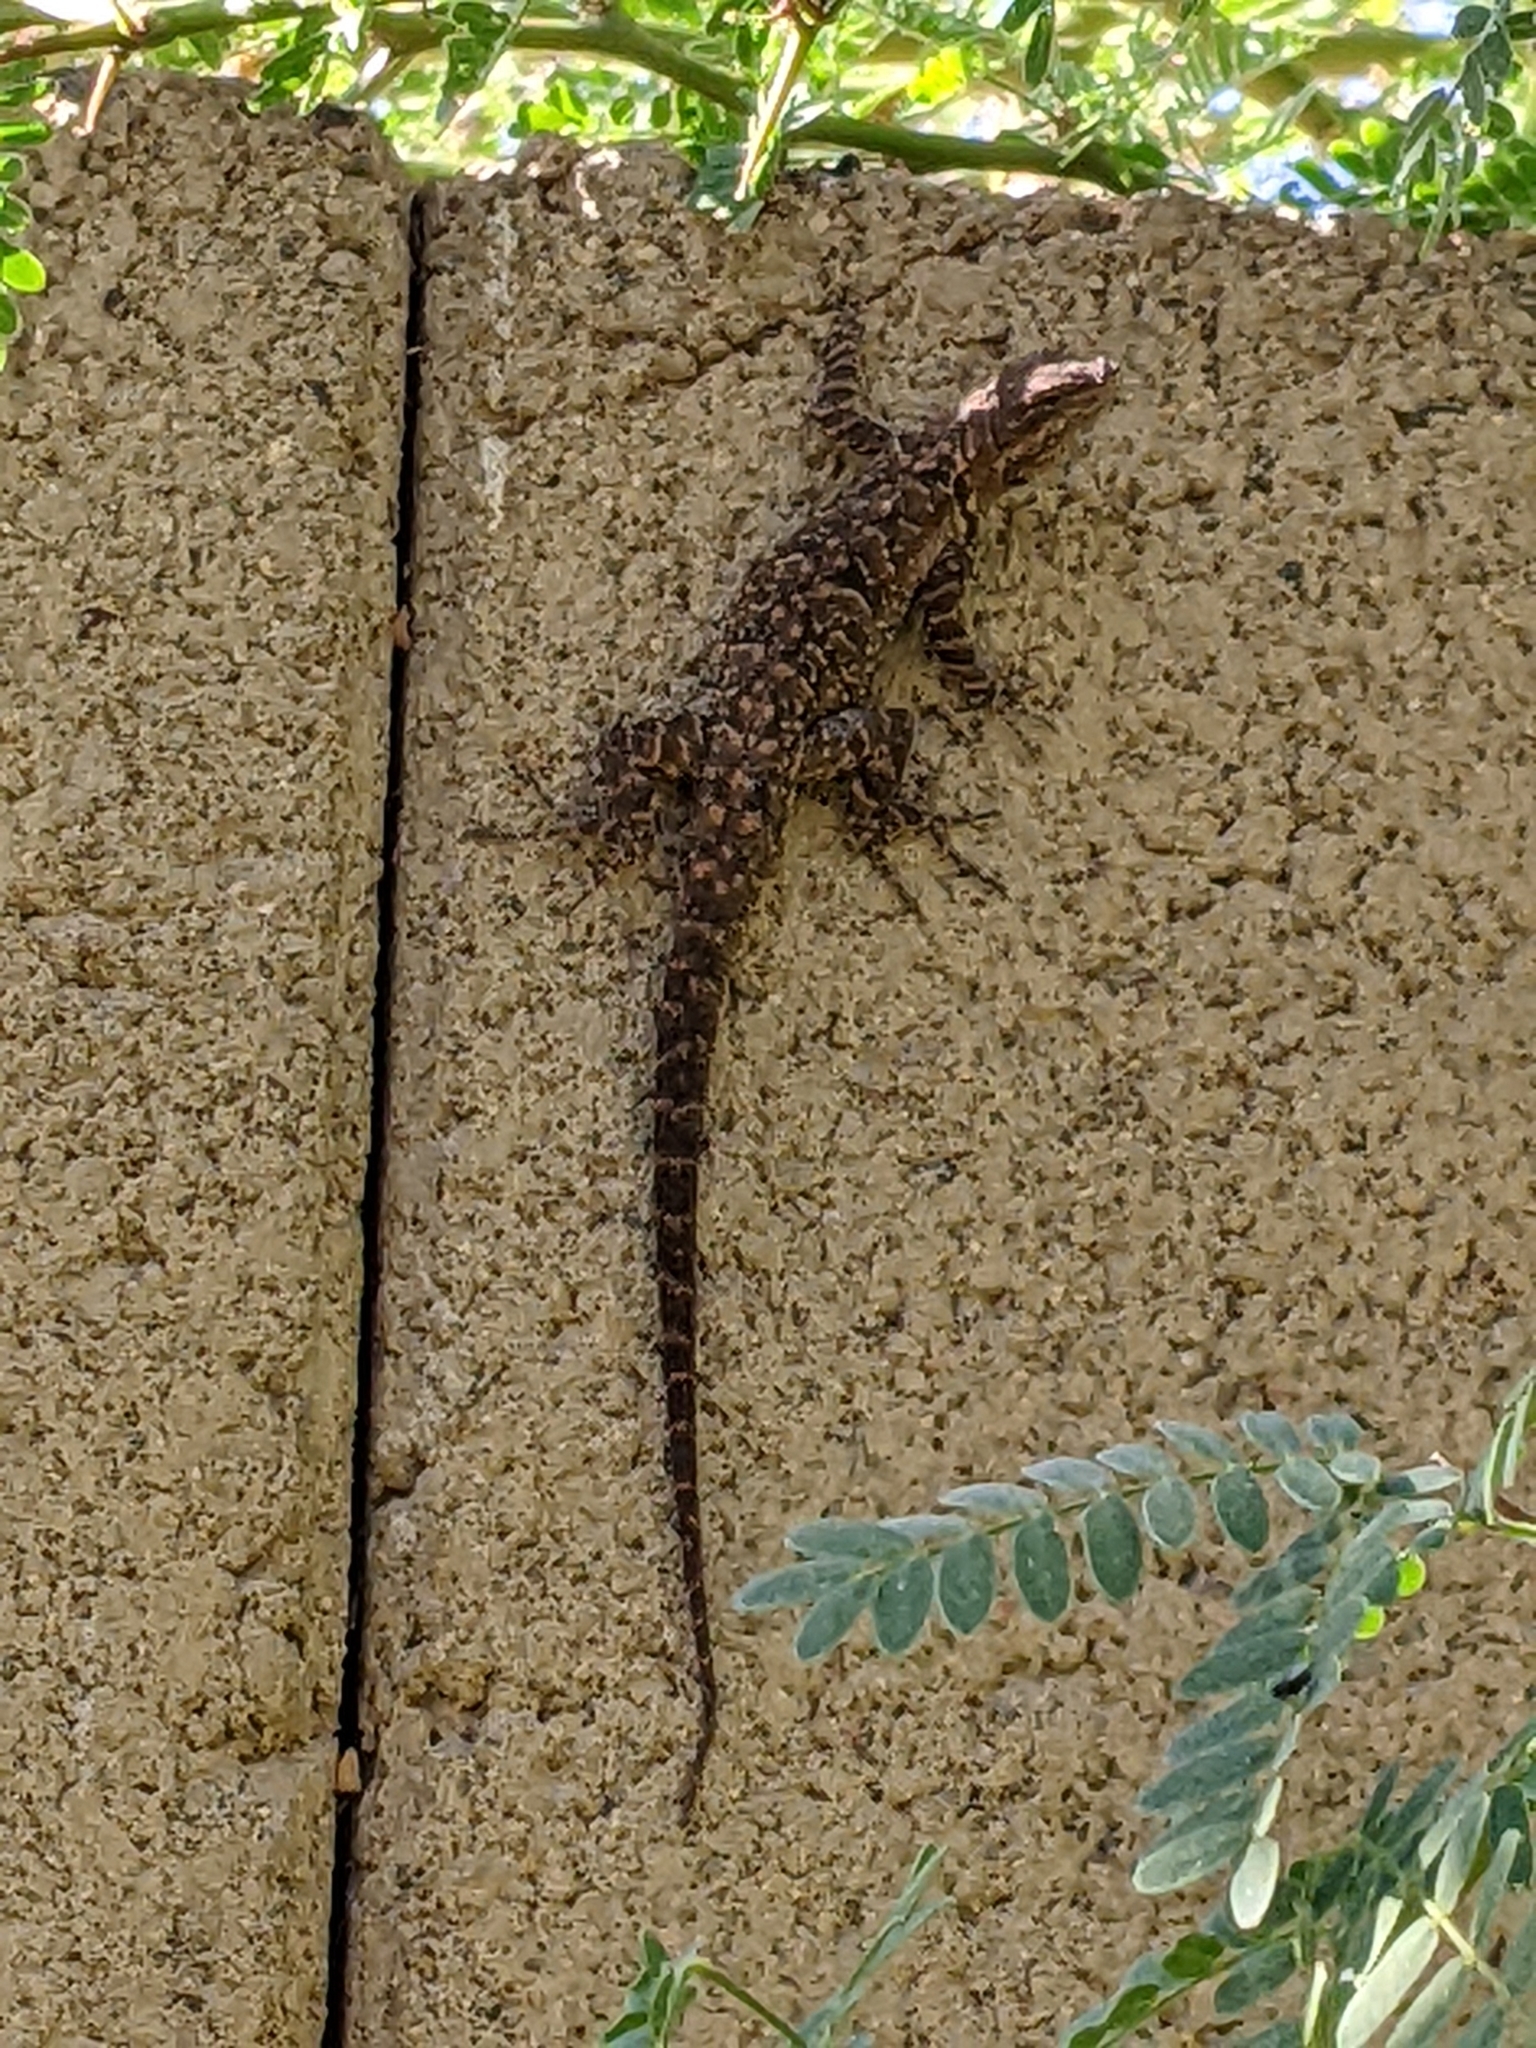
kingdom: Animalia
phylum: Chordata
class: Squamata
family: Phrynosomatidae
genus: Urosaurus
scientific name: Urosaurus ornatus
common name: Ornate tree lizard
